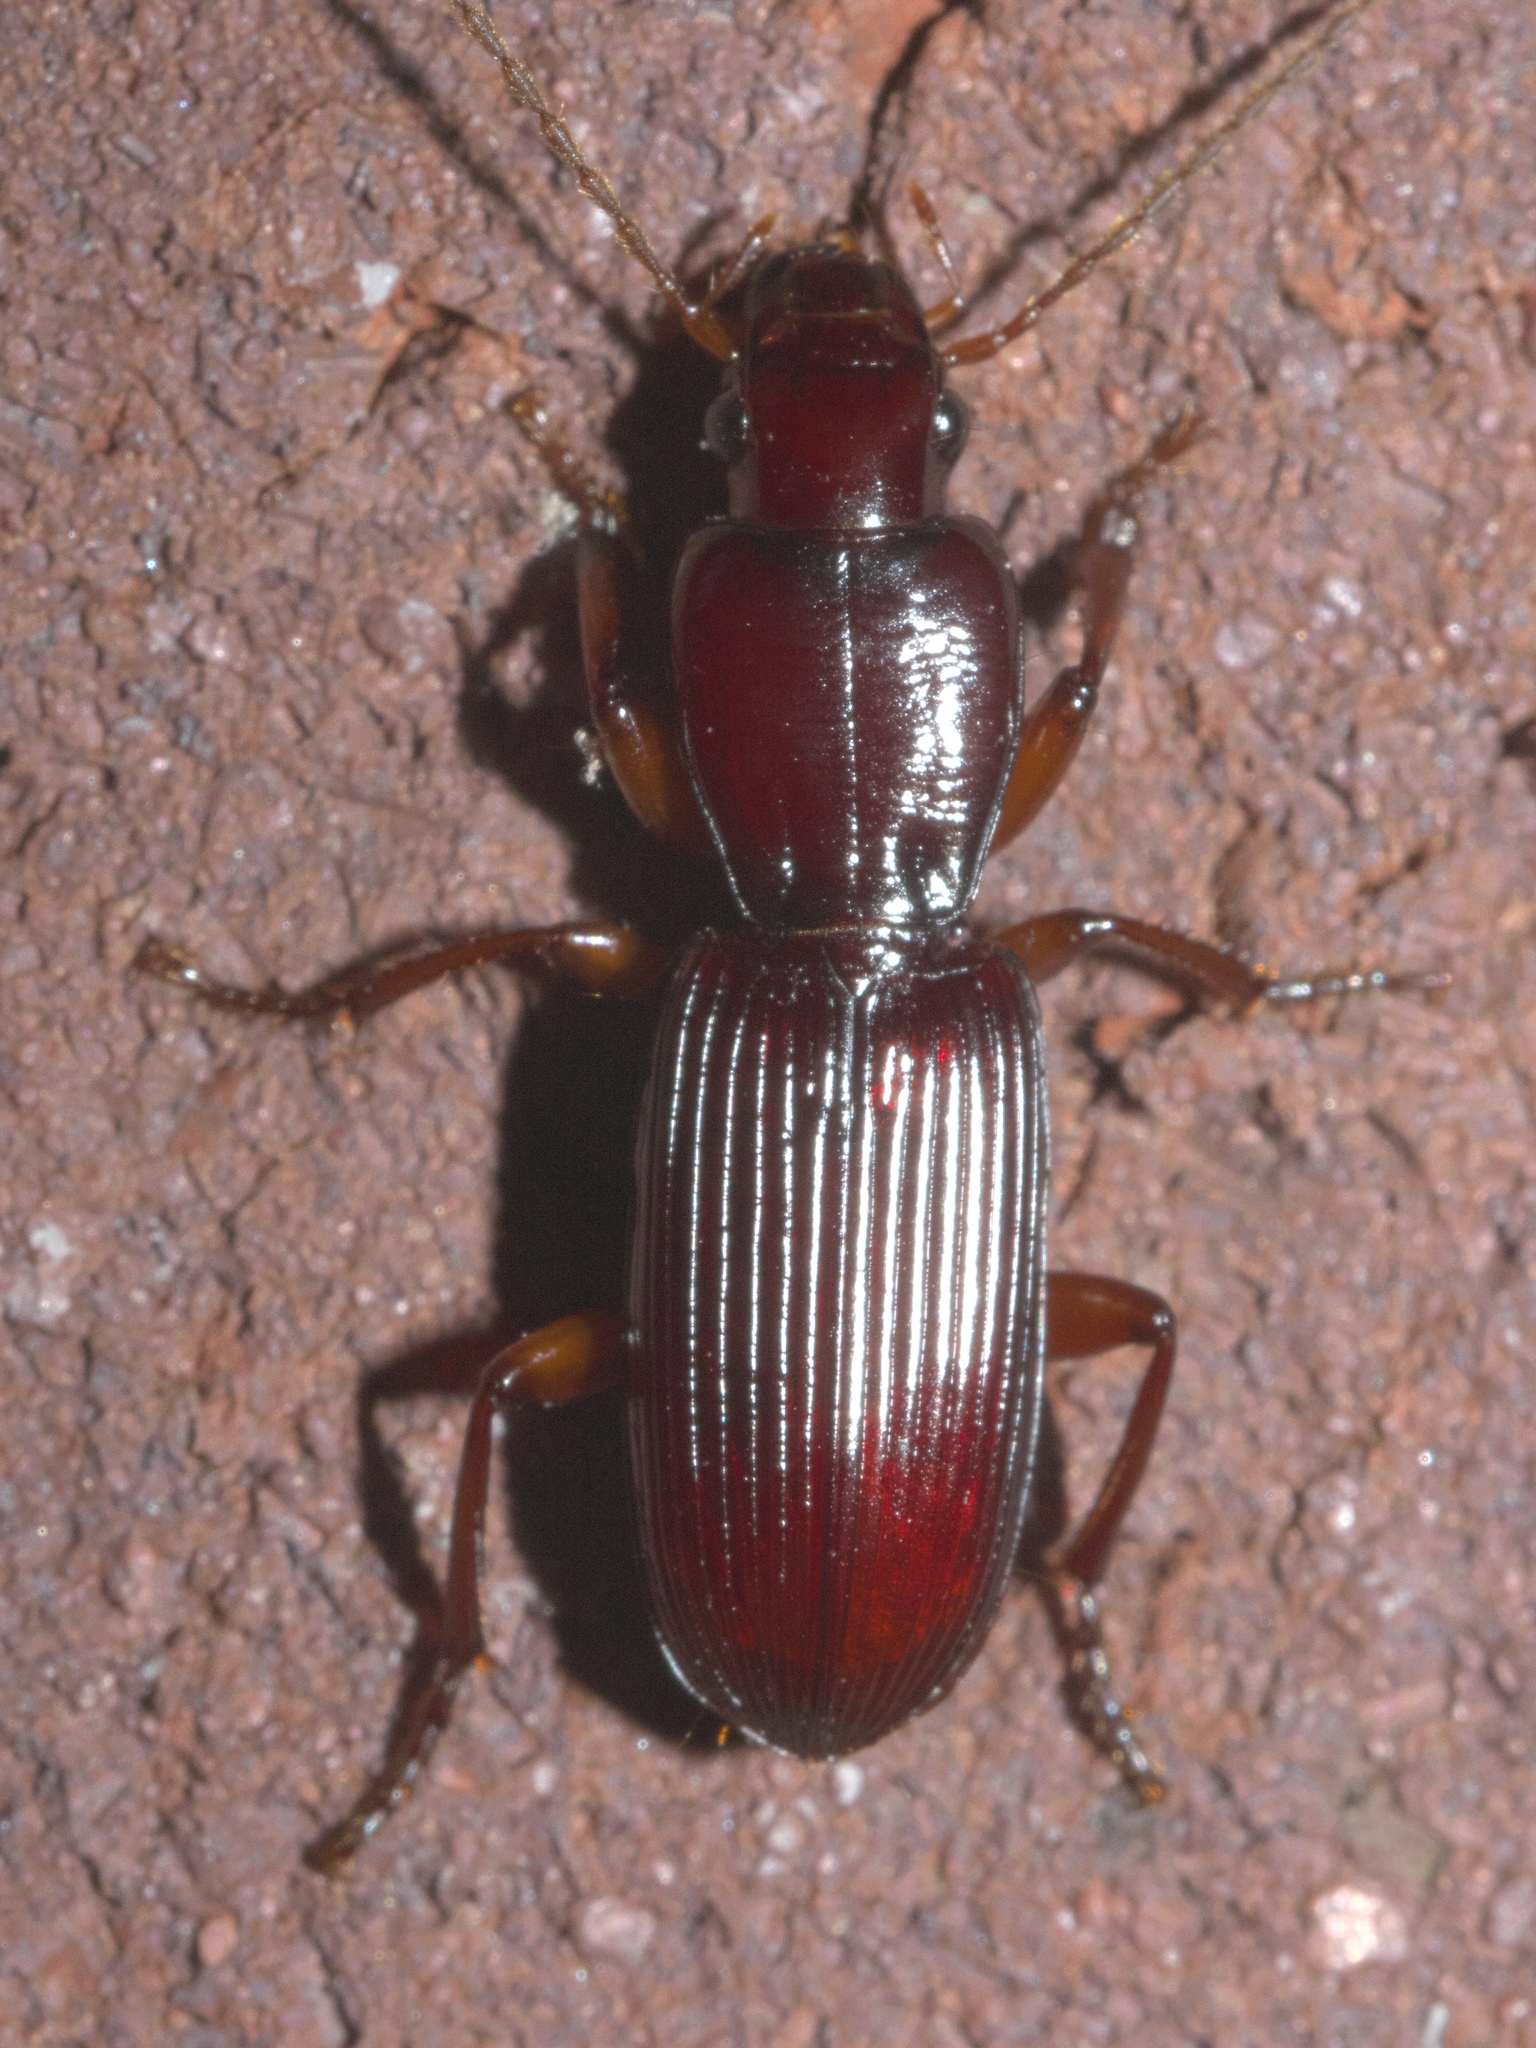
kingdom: Animalia
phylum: Arthropoda
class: Insecta
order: Coleoptera
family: Carabidae
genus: Stenomorphus
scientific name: Stenomorphus californicus
